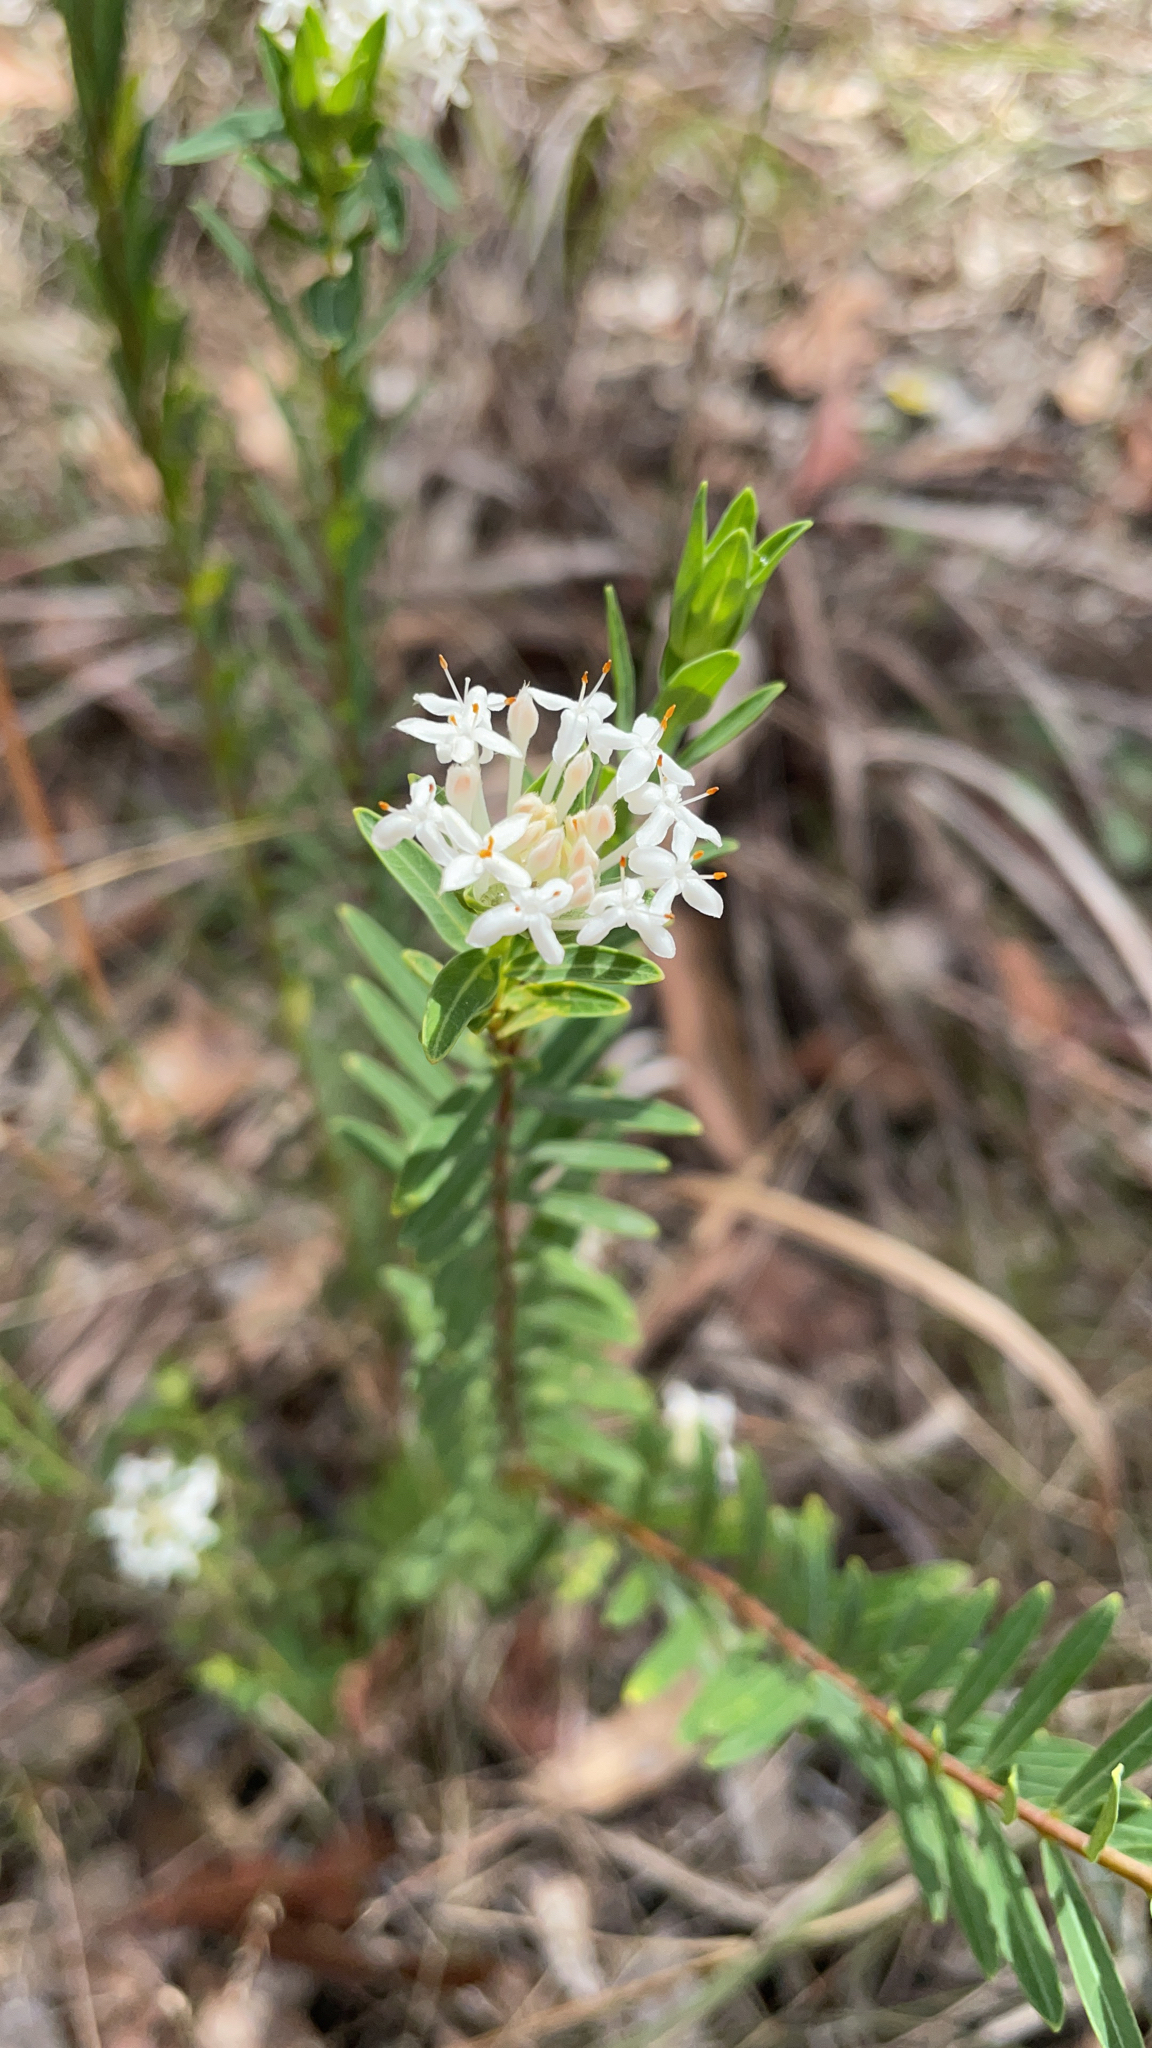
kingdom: Plantae
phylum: Tracheophyta
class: Magnoliopsida
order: Malvales
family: Thymelaeaceae
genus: Pimelea
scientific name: Pimelea linifolia
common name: Queen-of-the-bush
